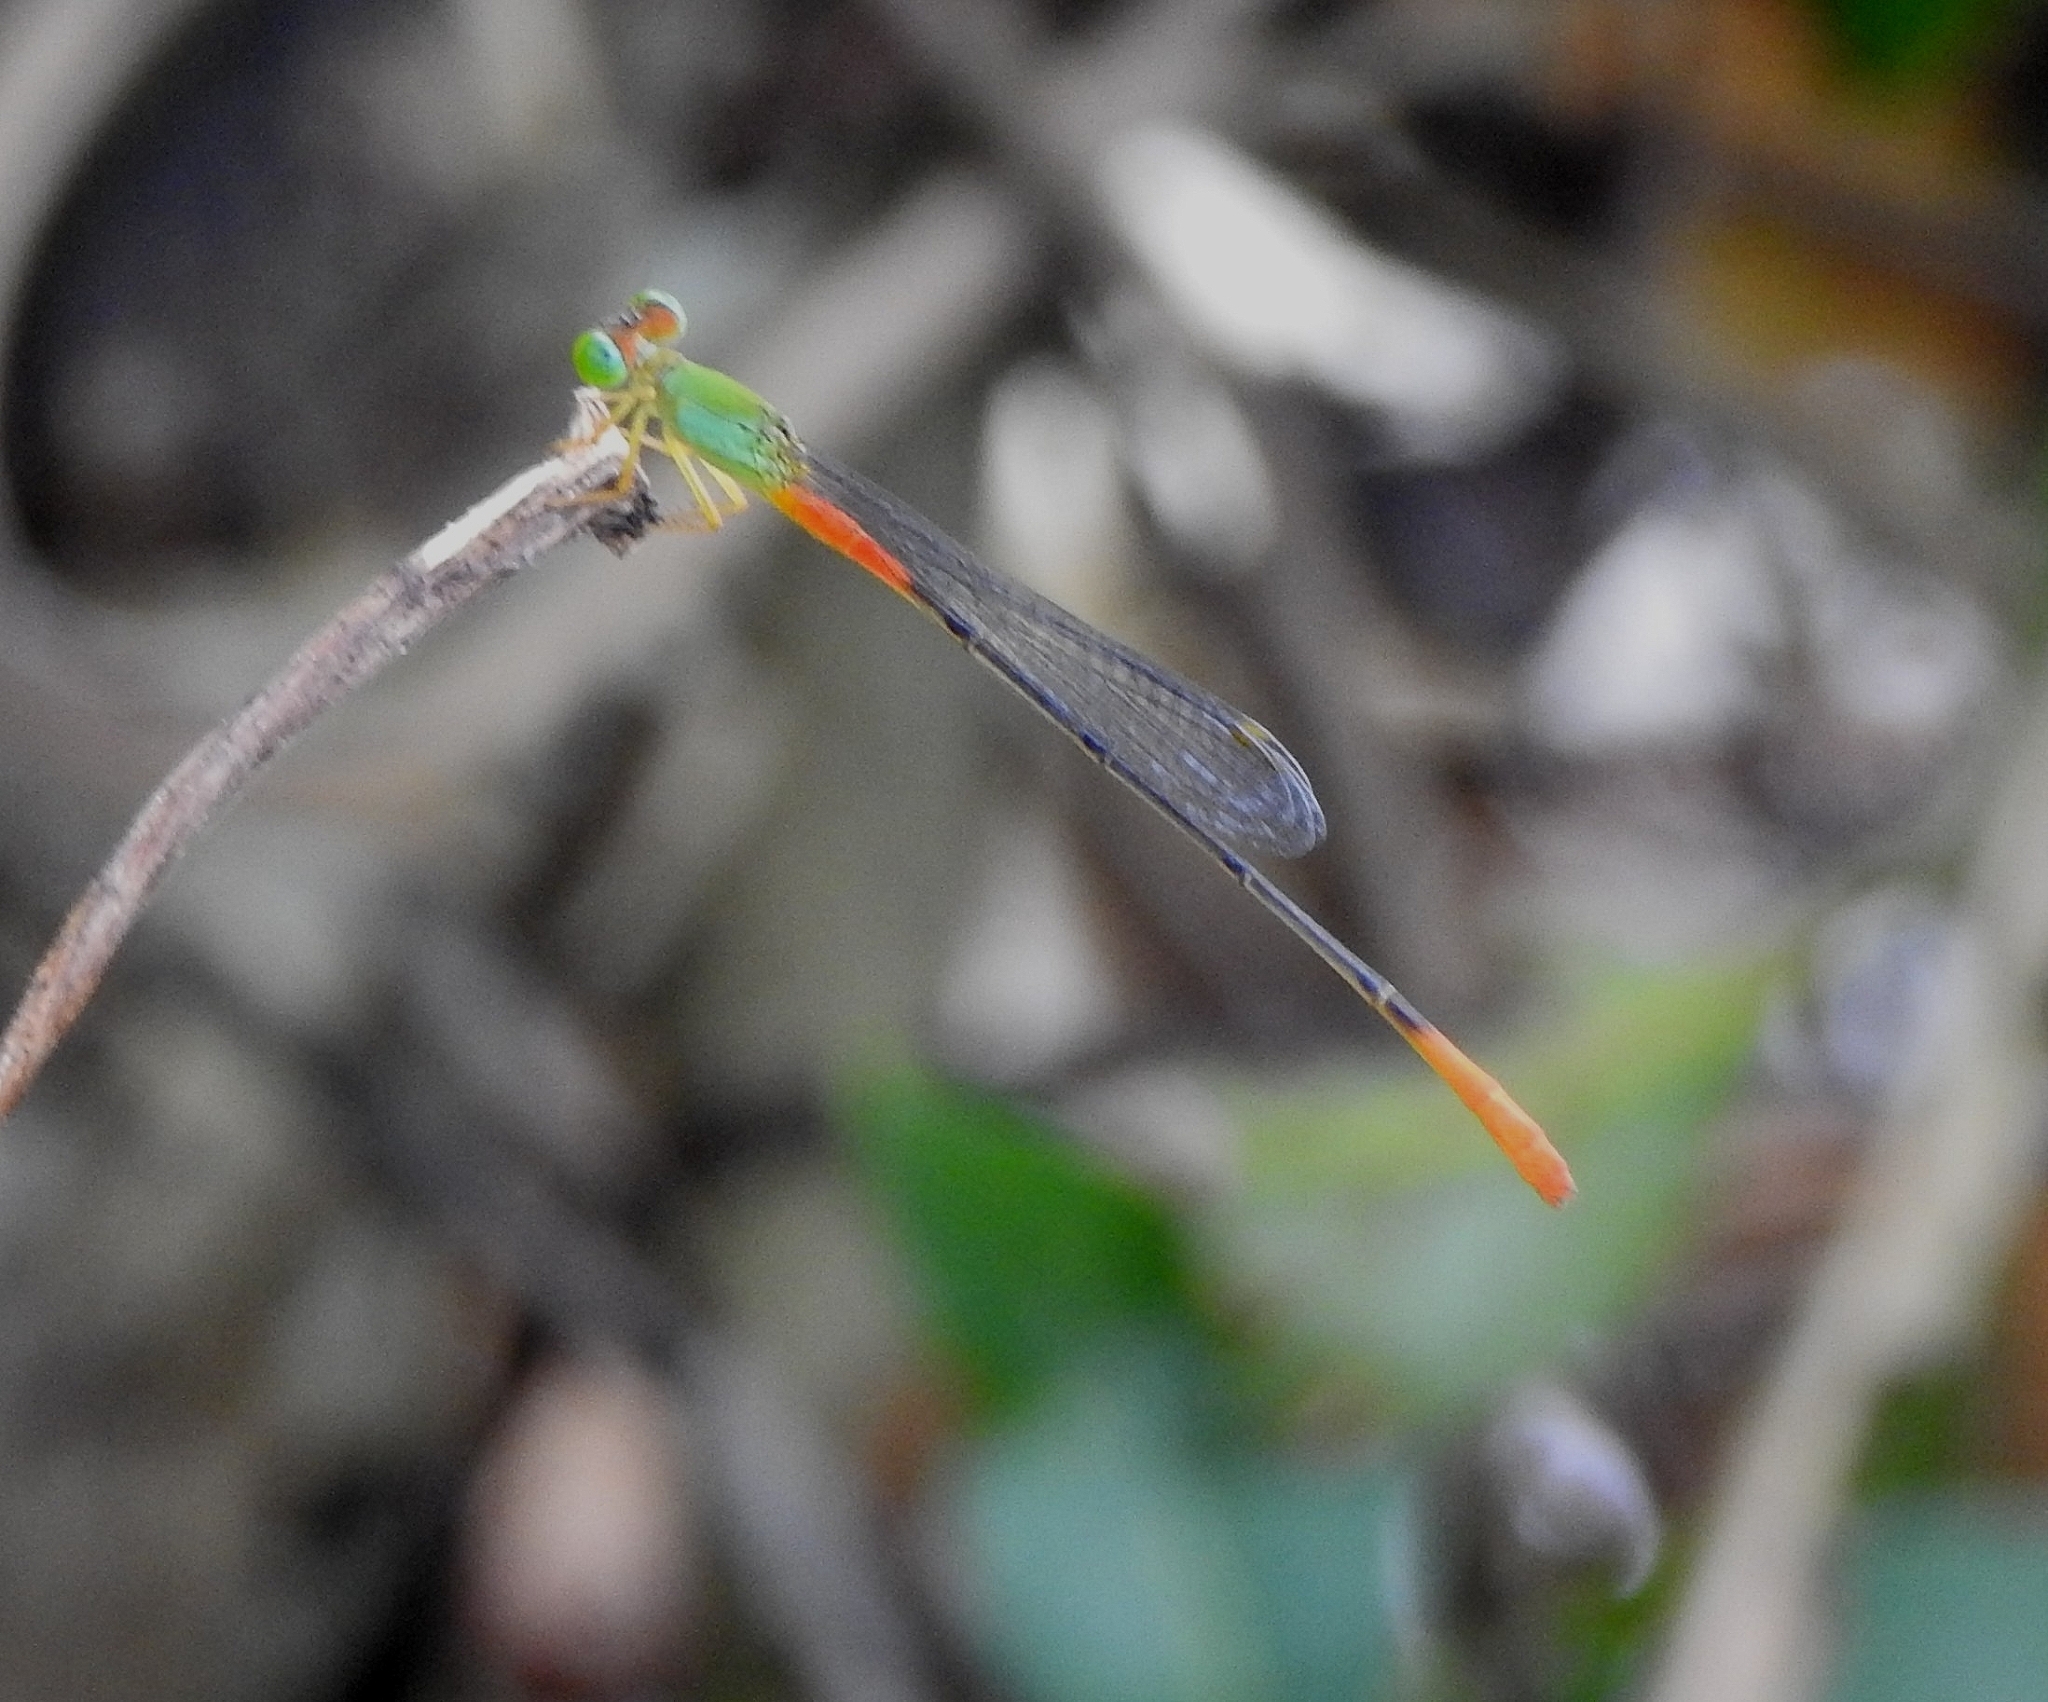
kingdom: Animalia
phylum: Arthropoda
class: Insecta
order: Odonata
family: Coenagrionidae
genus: Ceriagrion
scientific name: Ceriagrion cerinorubellum
